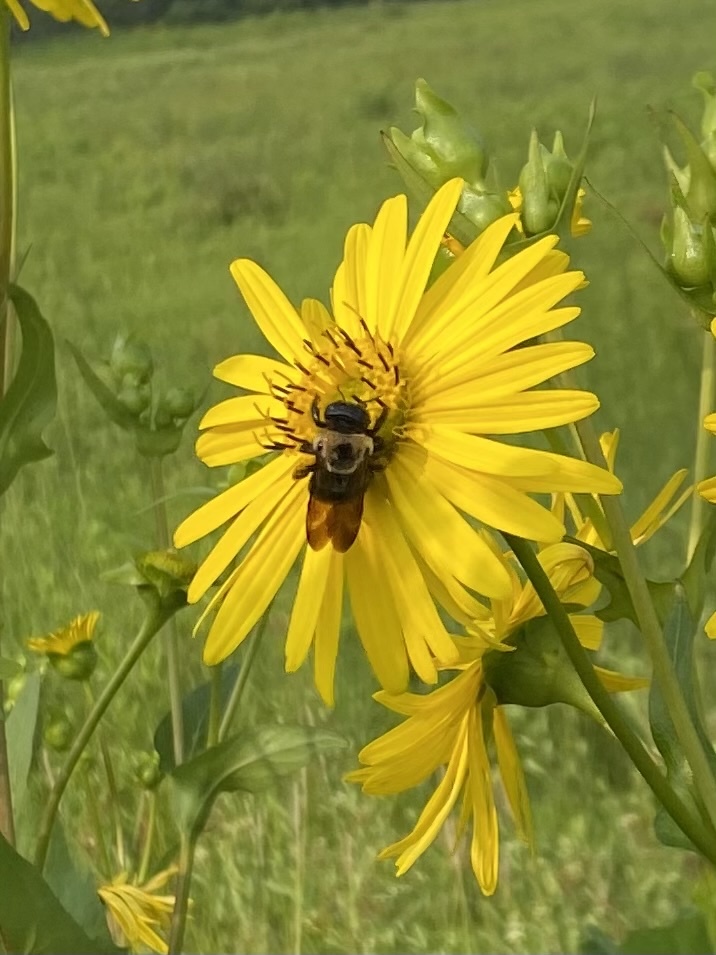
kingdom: Animalia
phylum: Arthropoda
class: Insecta
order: Hymenoptera
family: Apidae
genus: Xylocopa
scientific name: Xylocopa virginica
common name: Carpenter bee
